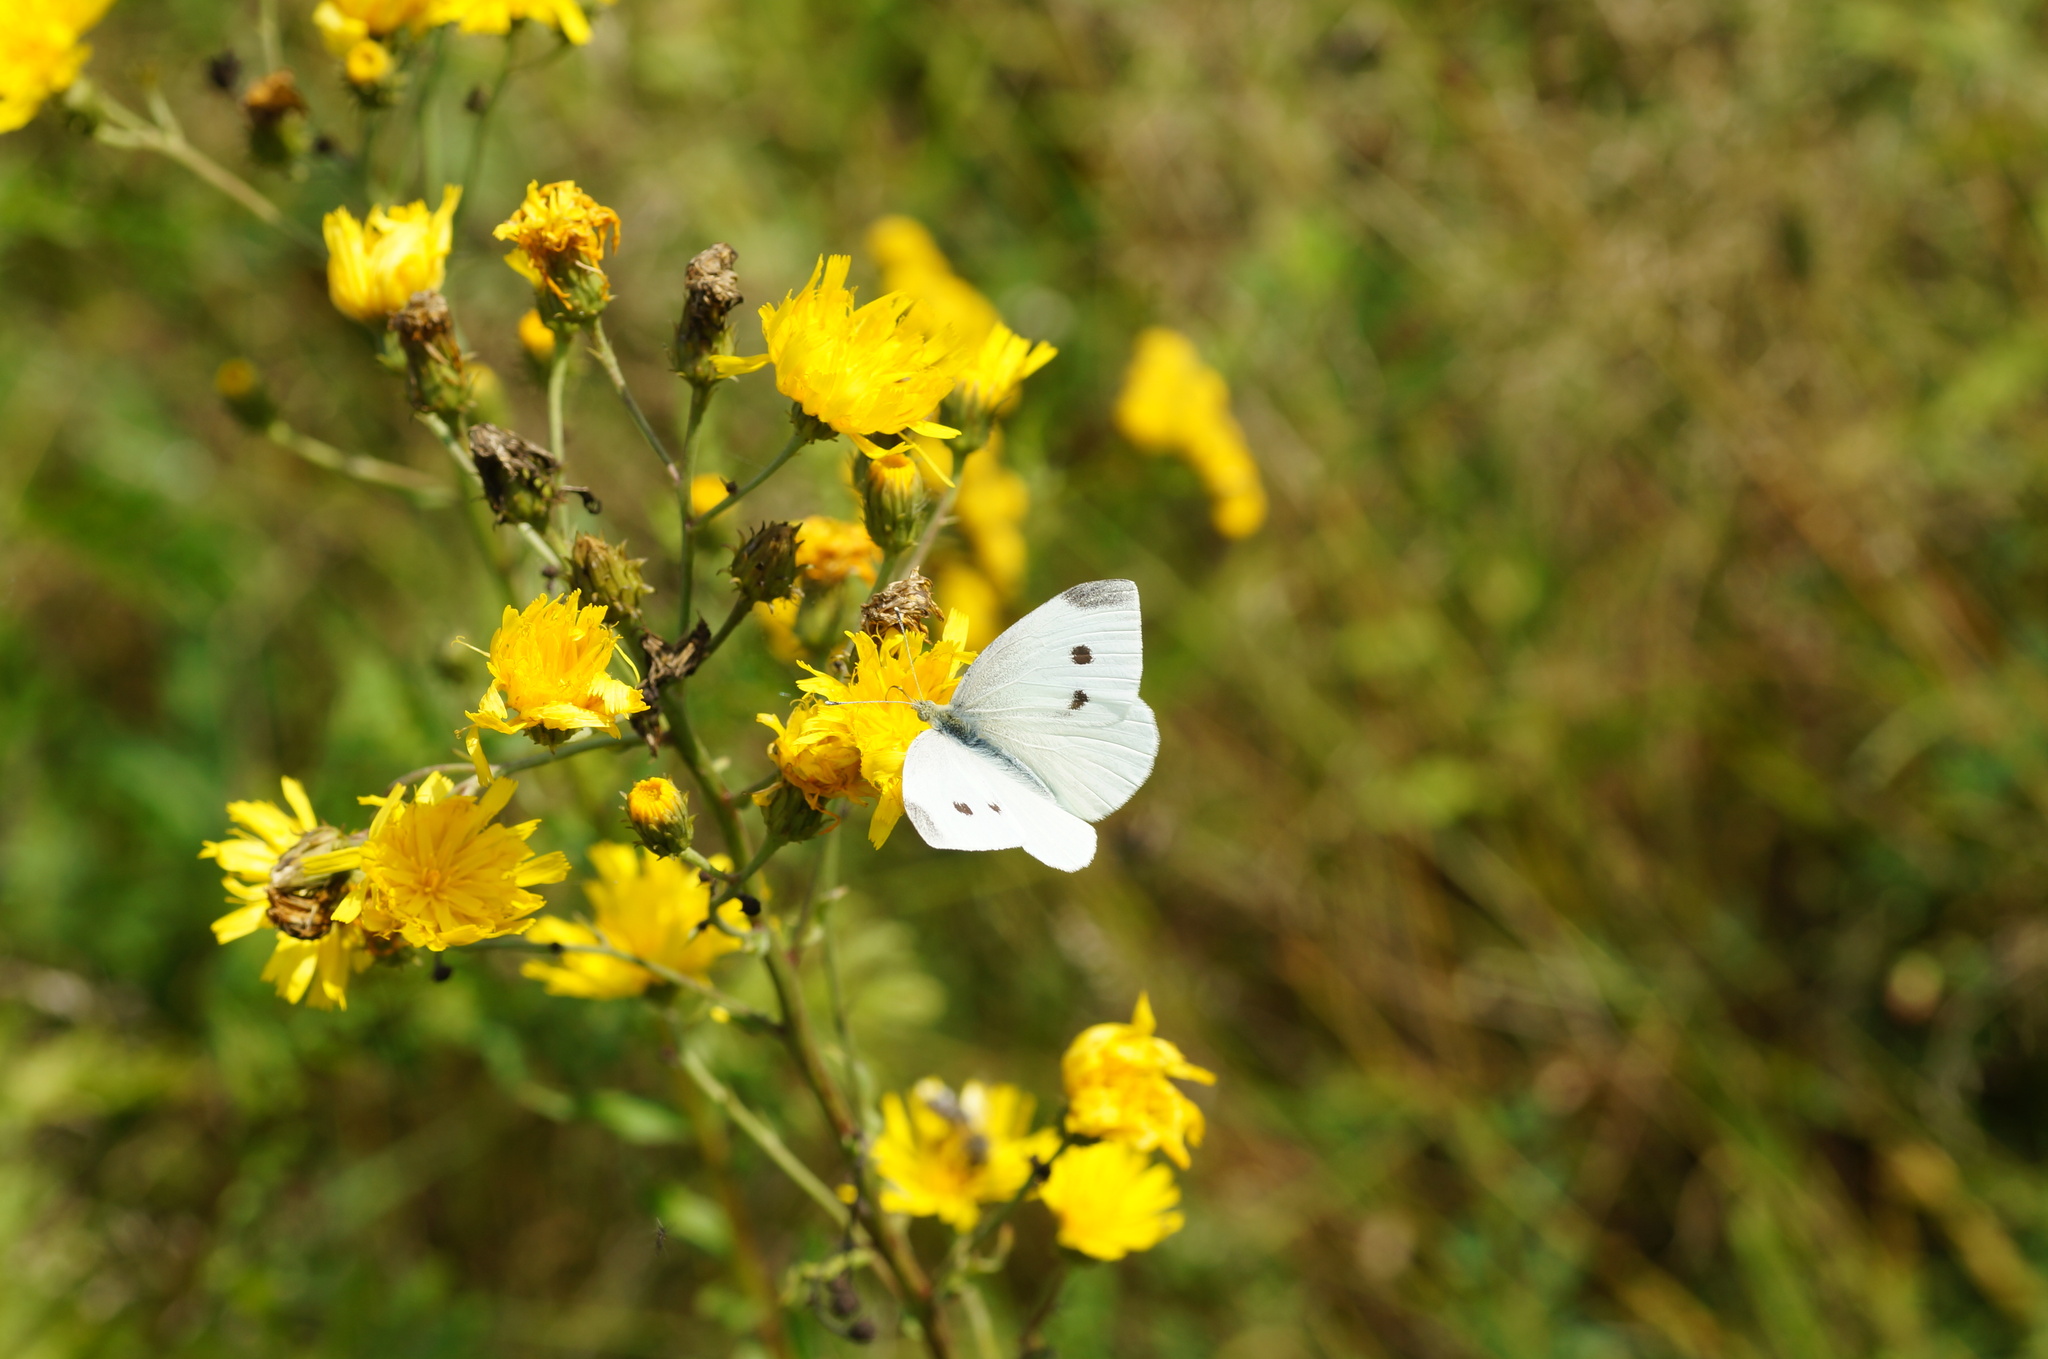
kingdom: Animalia
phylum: Arthropoda
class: Insecta
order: Lepidoptera
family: Pieridae
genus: Pieris
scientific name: Pieris rapae
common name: Small white
